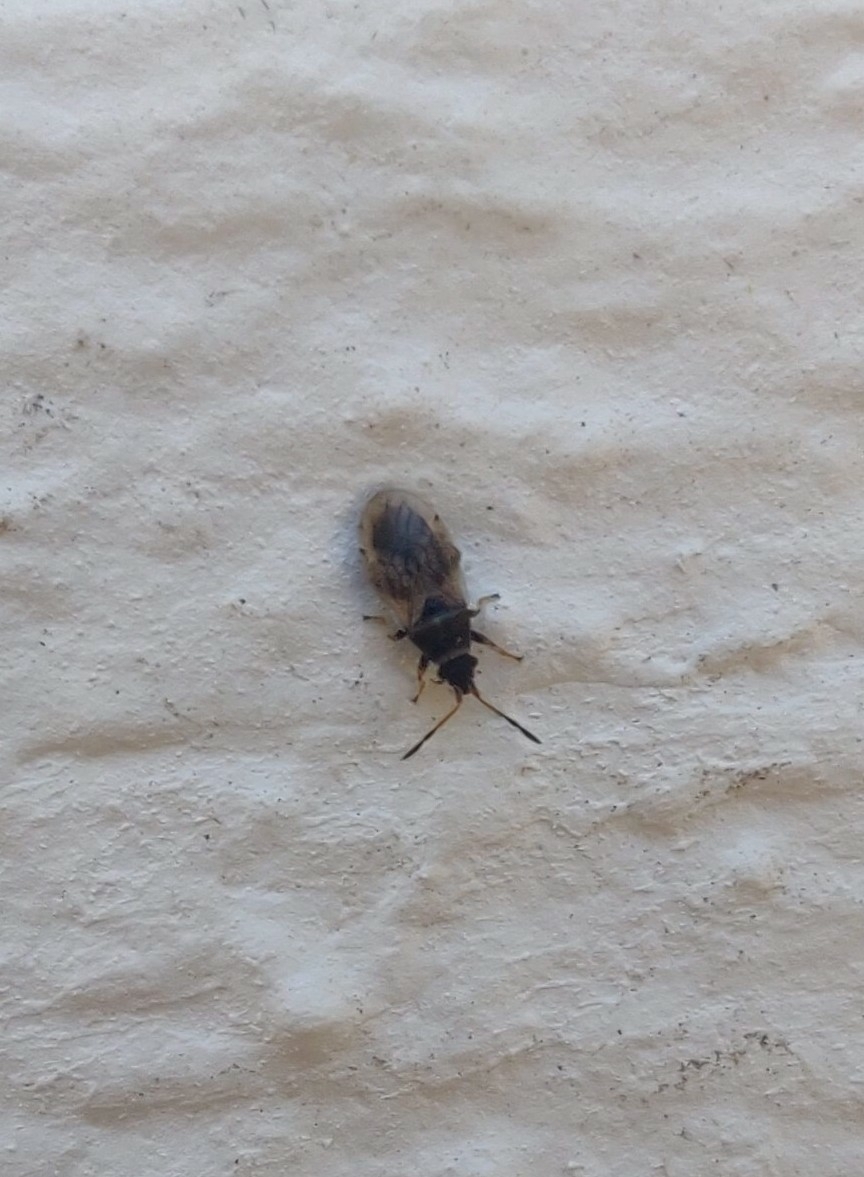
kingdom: Animalia
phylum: Arthropoda
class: Insecta
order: Hemiptera
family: Oxycarenidae
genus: Crophius
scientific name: Crophius bohemani
